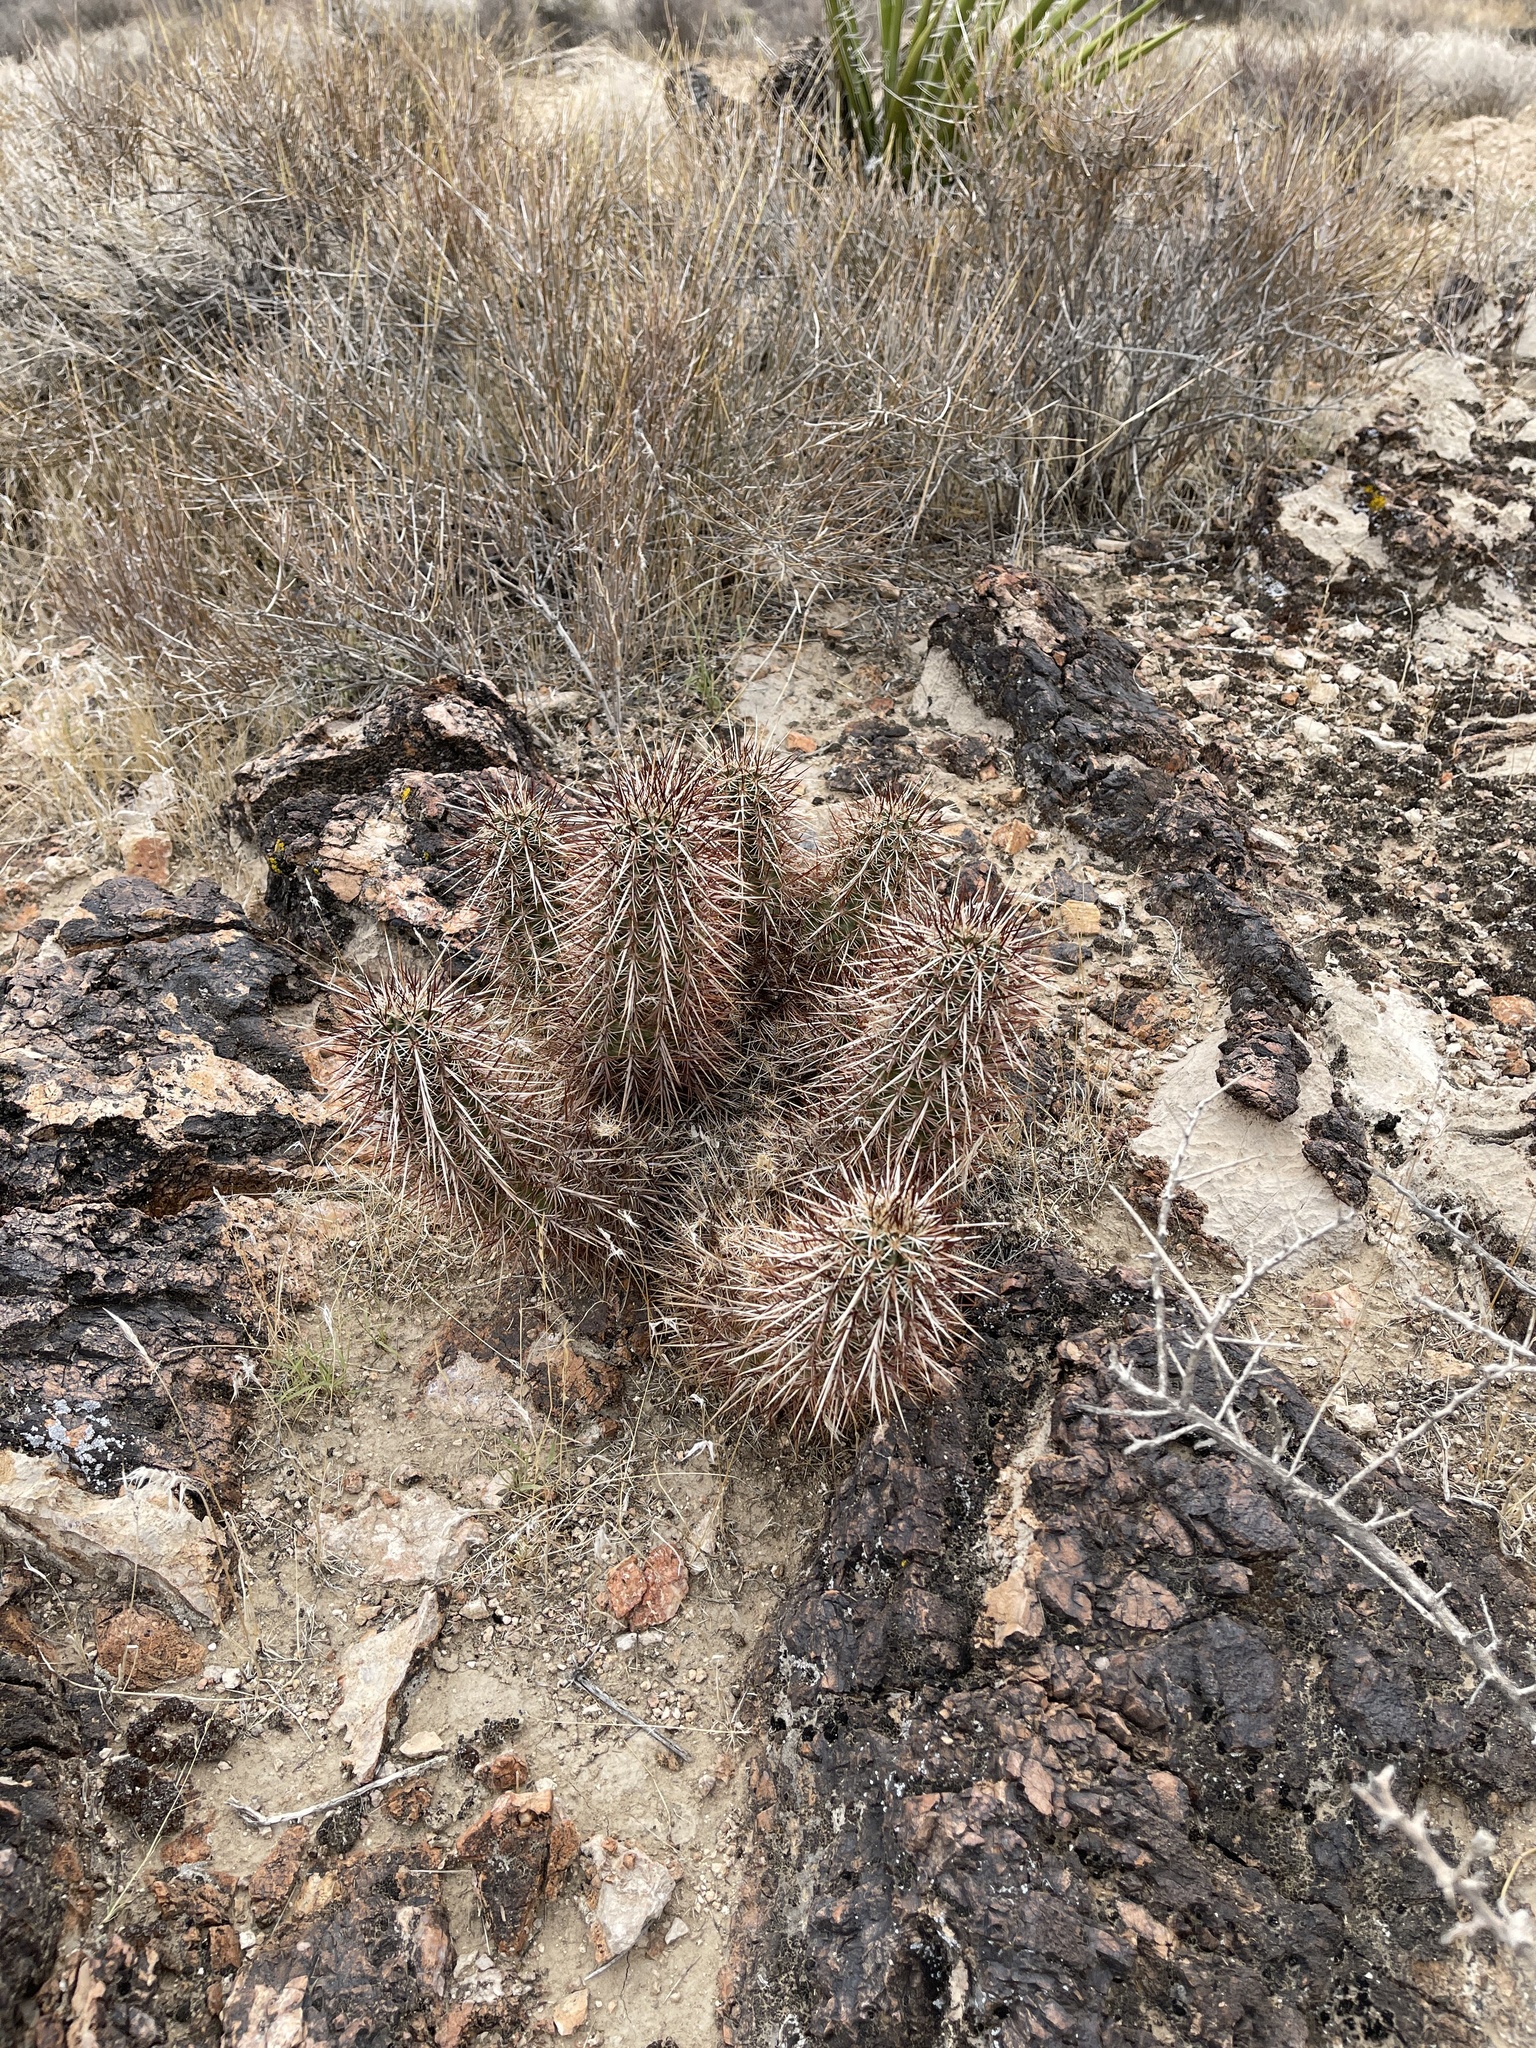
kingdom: Plantae
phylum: Tracheophyta
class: Magnoliopsida
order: Caryophyllales
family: Cactaceae
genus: Echinocereus
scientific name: Echinocereus engelmannii
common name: Engelmann's hedgehog cactus
